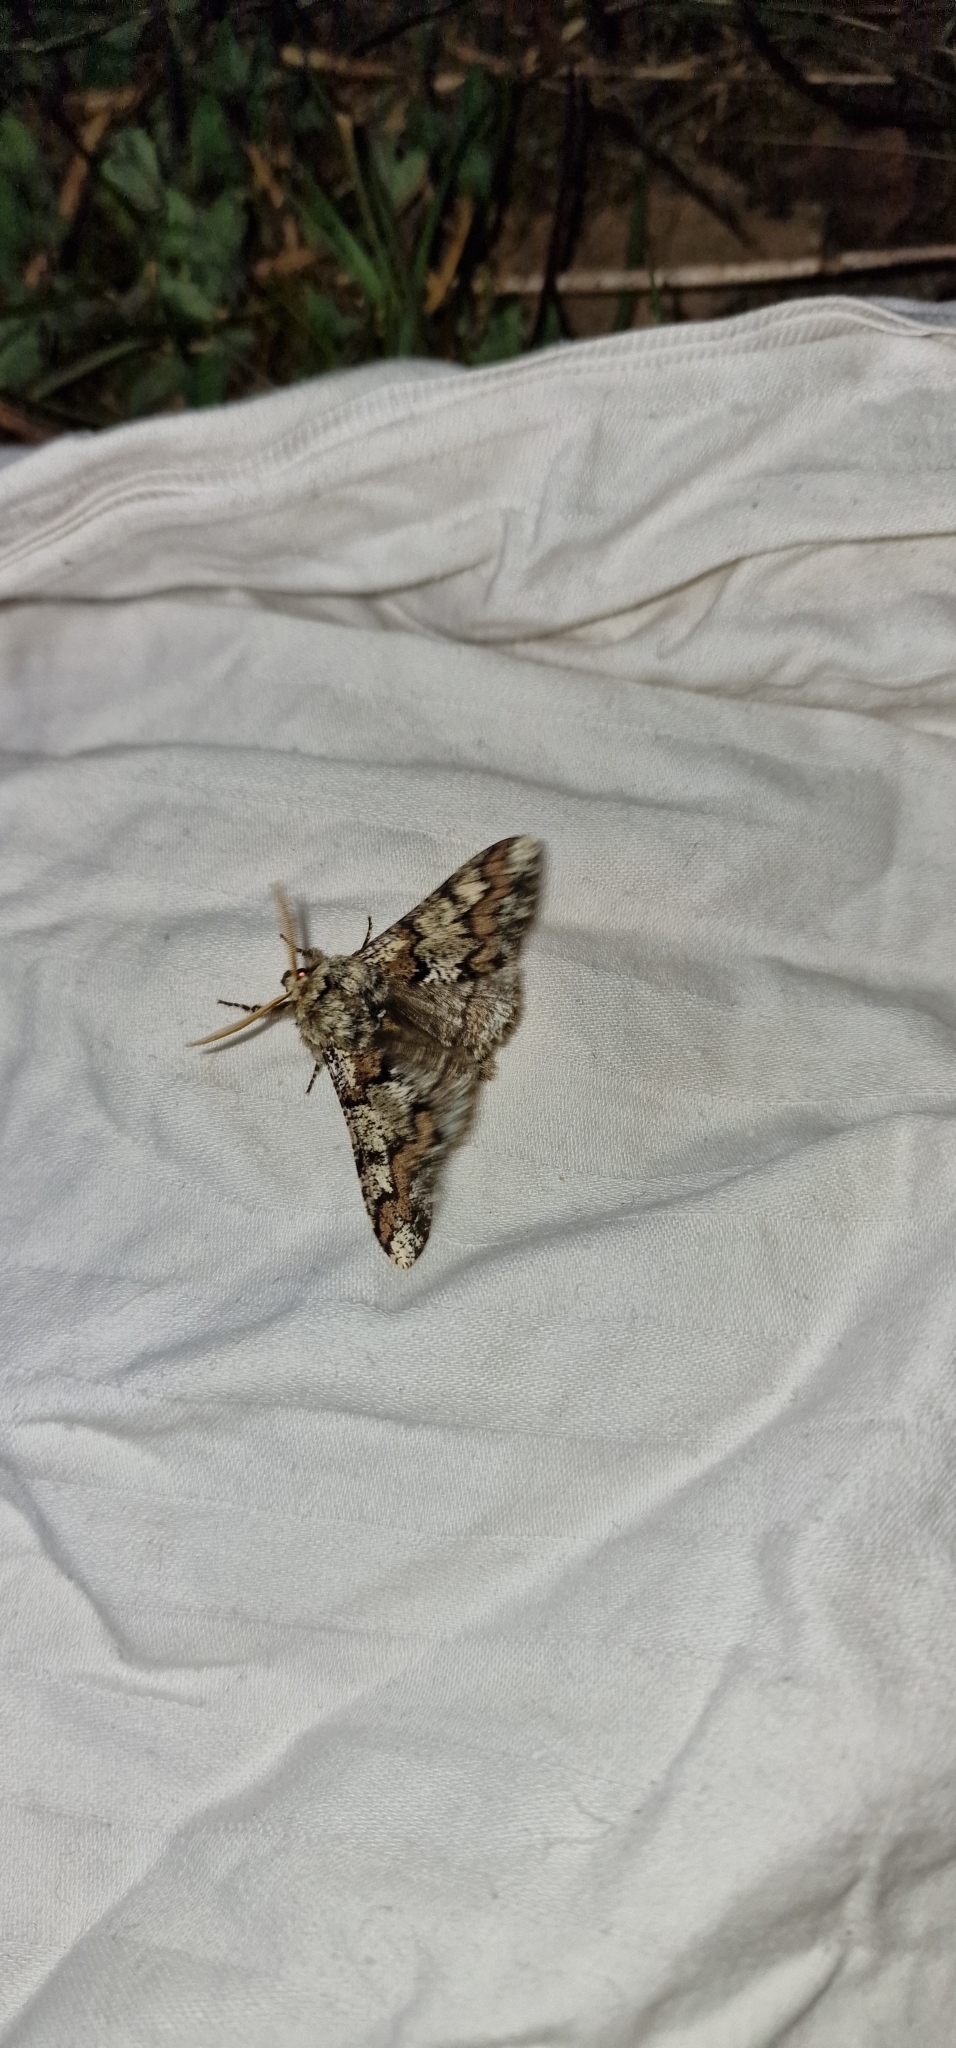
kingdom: Animalia
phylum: Arthropoda
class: Insecta
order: Lepidoptera
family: Geometridae
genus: Biston
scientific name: Biston strataria
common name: Oak beauty
